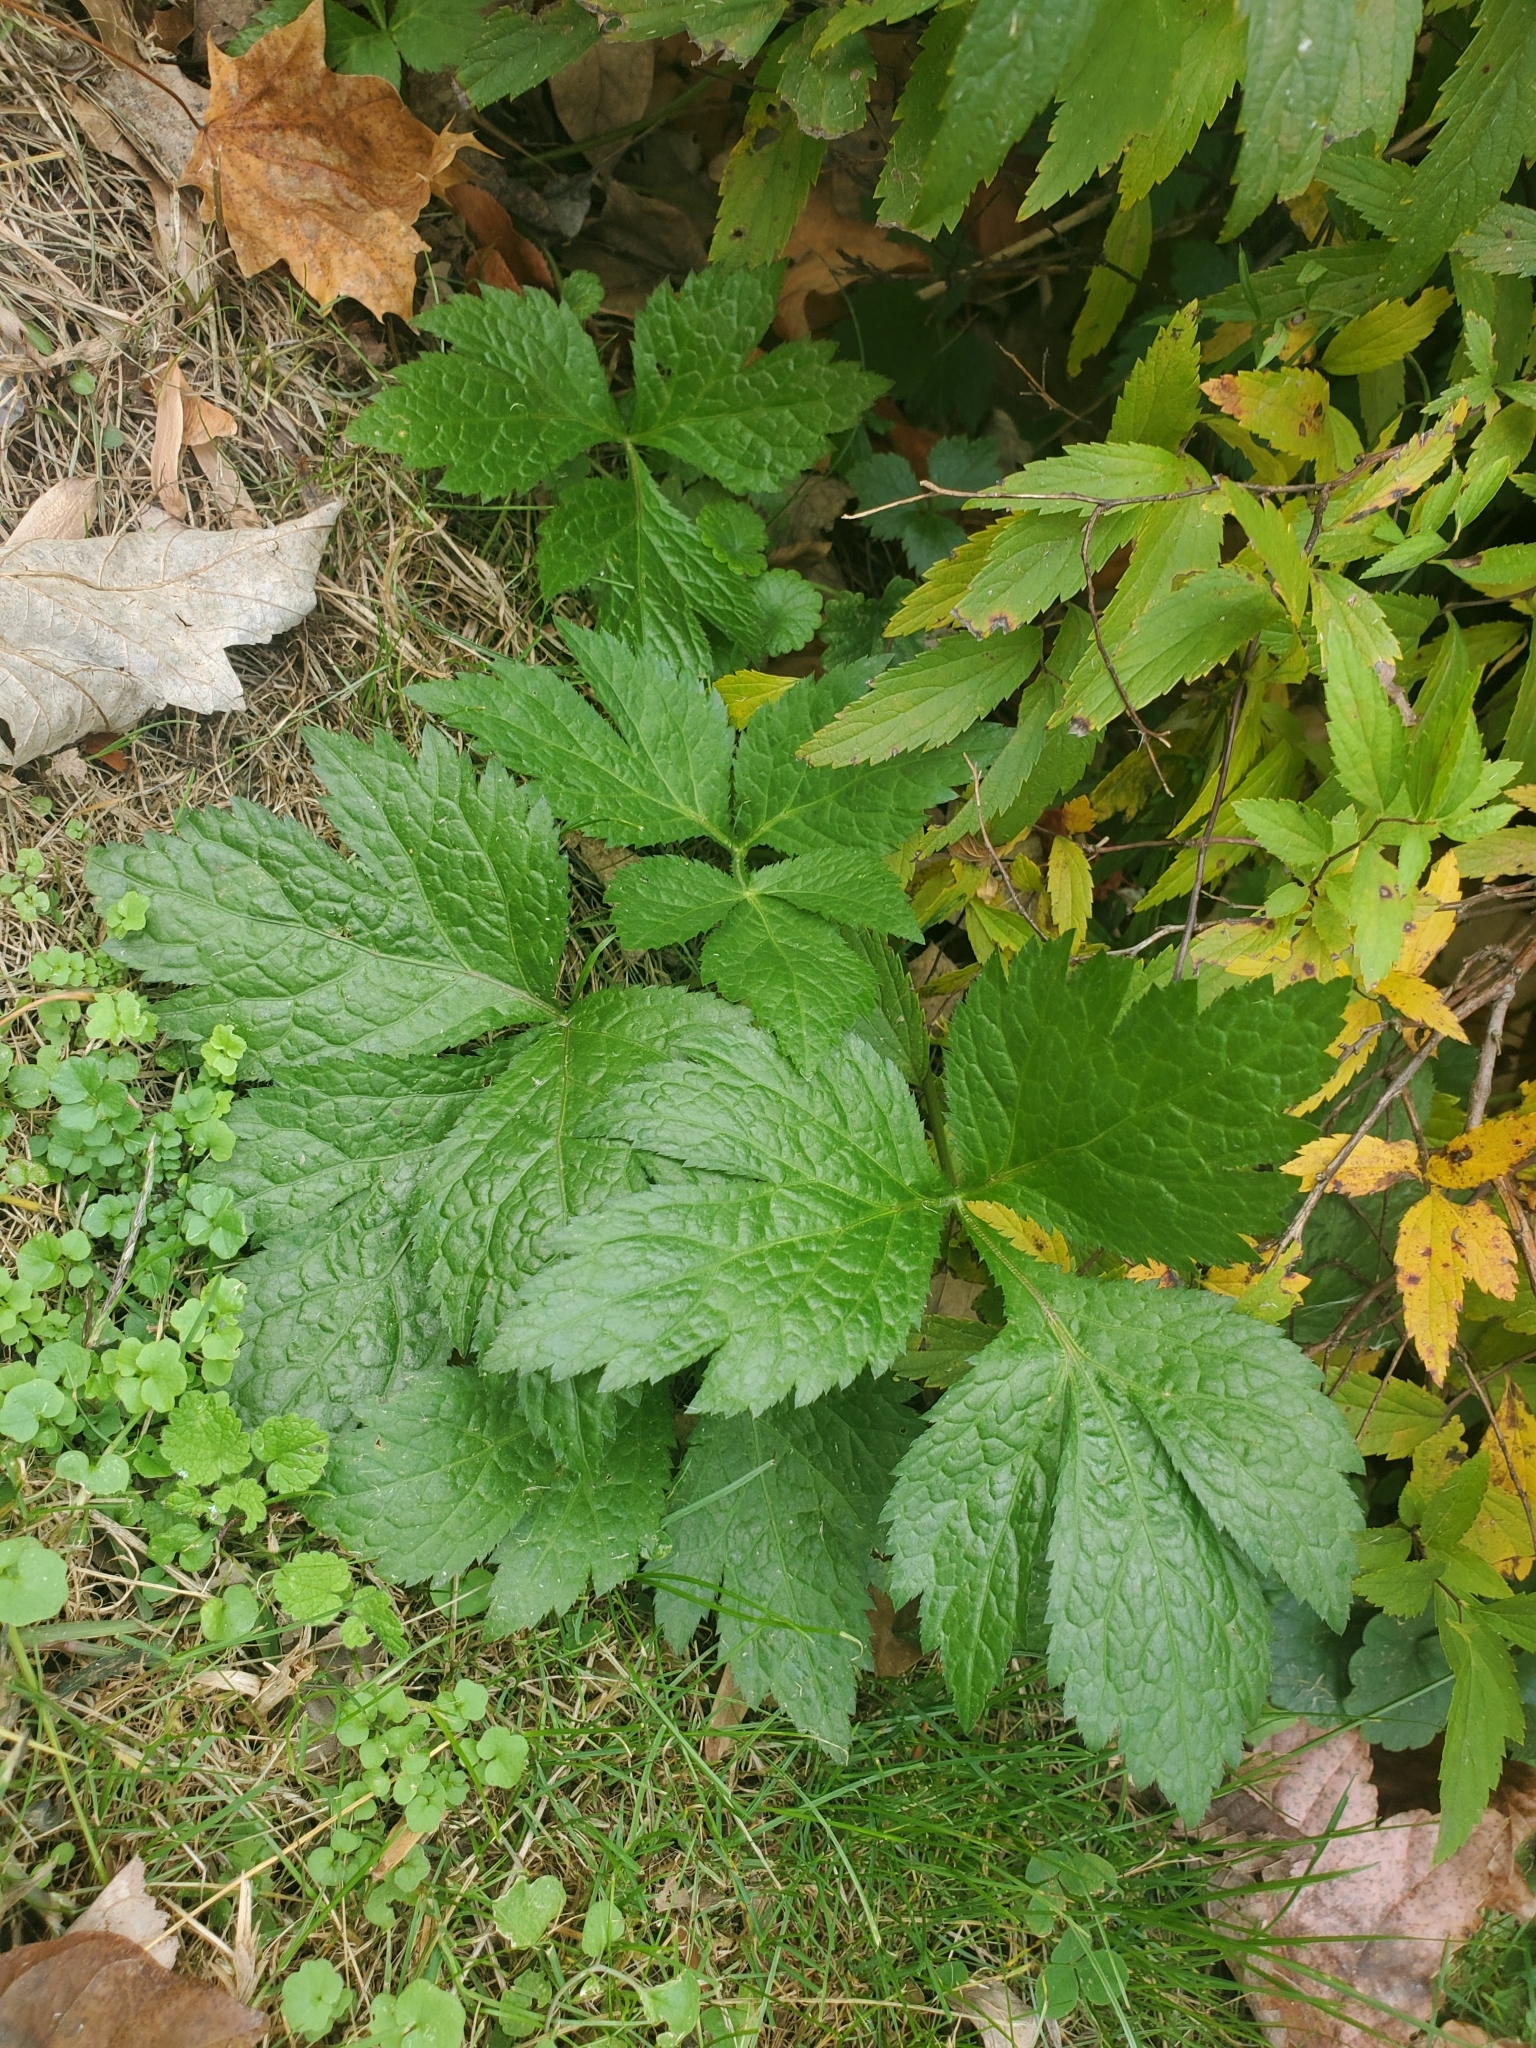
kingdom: Plantae
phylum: Tracheophyta
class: Magnoliopsida
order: Apiales
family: Apiaceae
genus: Cryptotaenia
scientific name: Cryptotaenia canadensis
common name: Honewort
